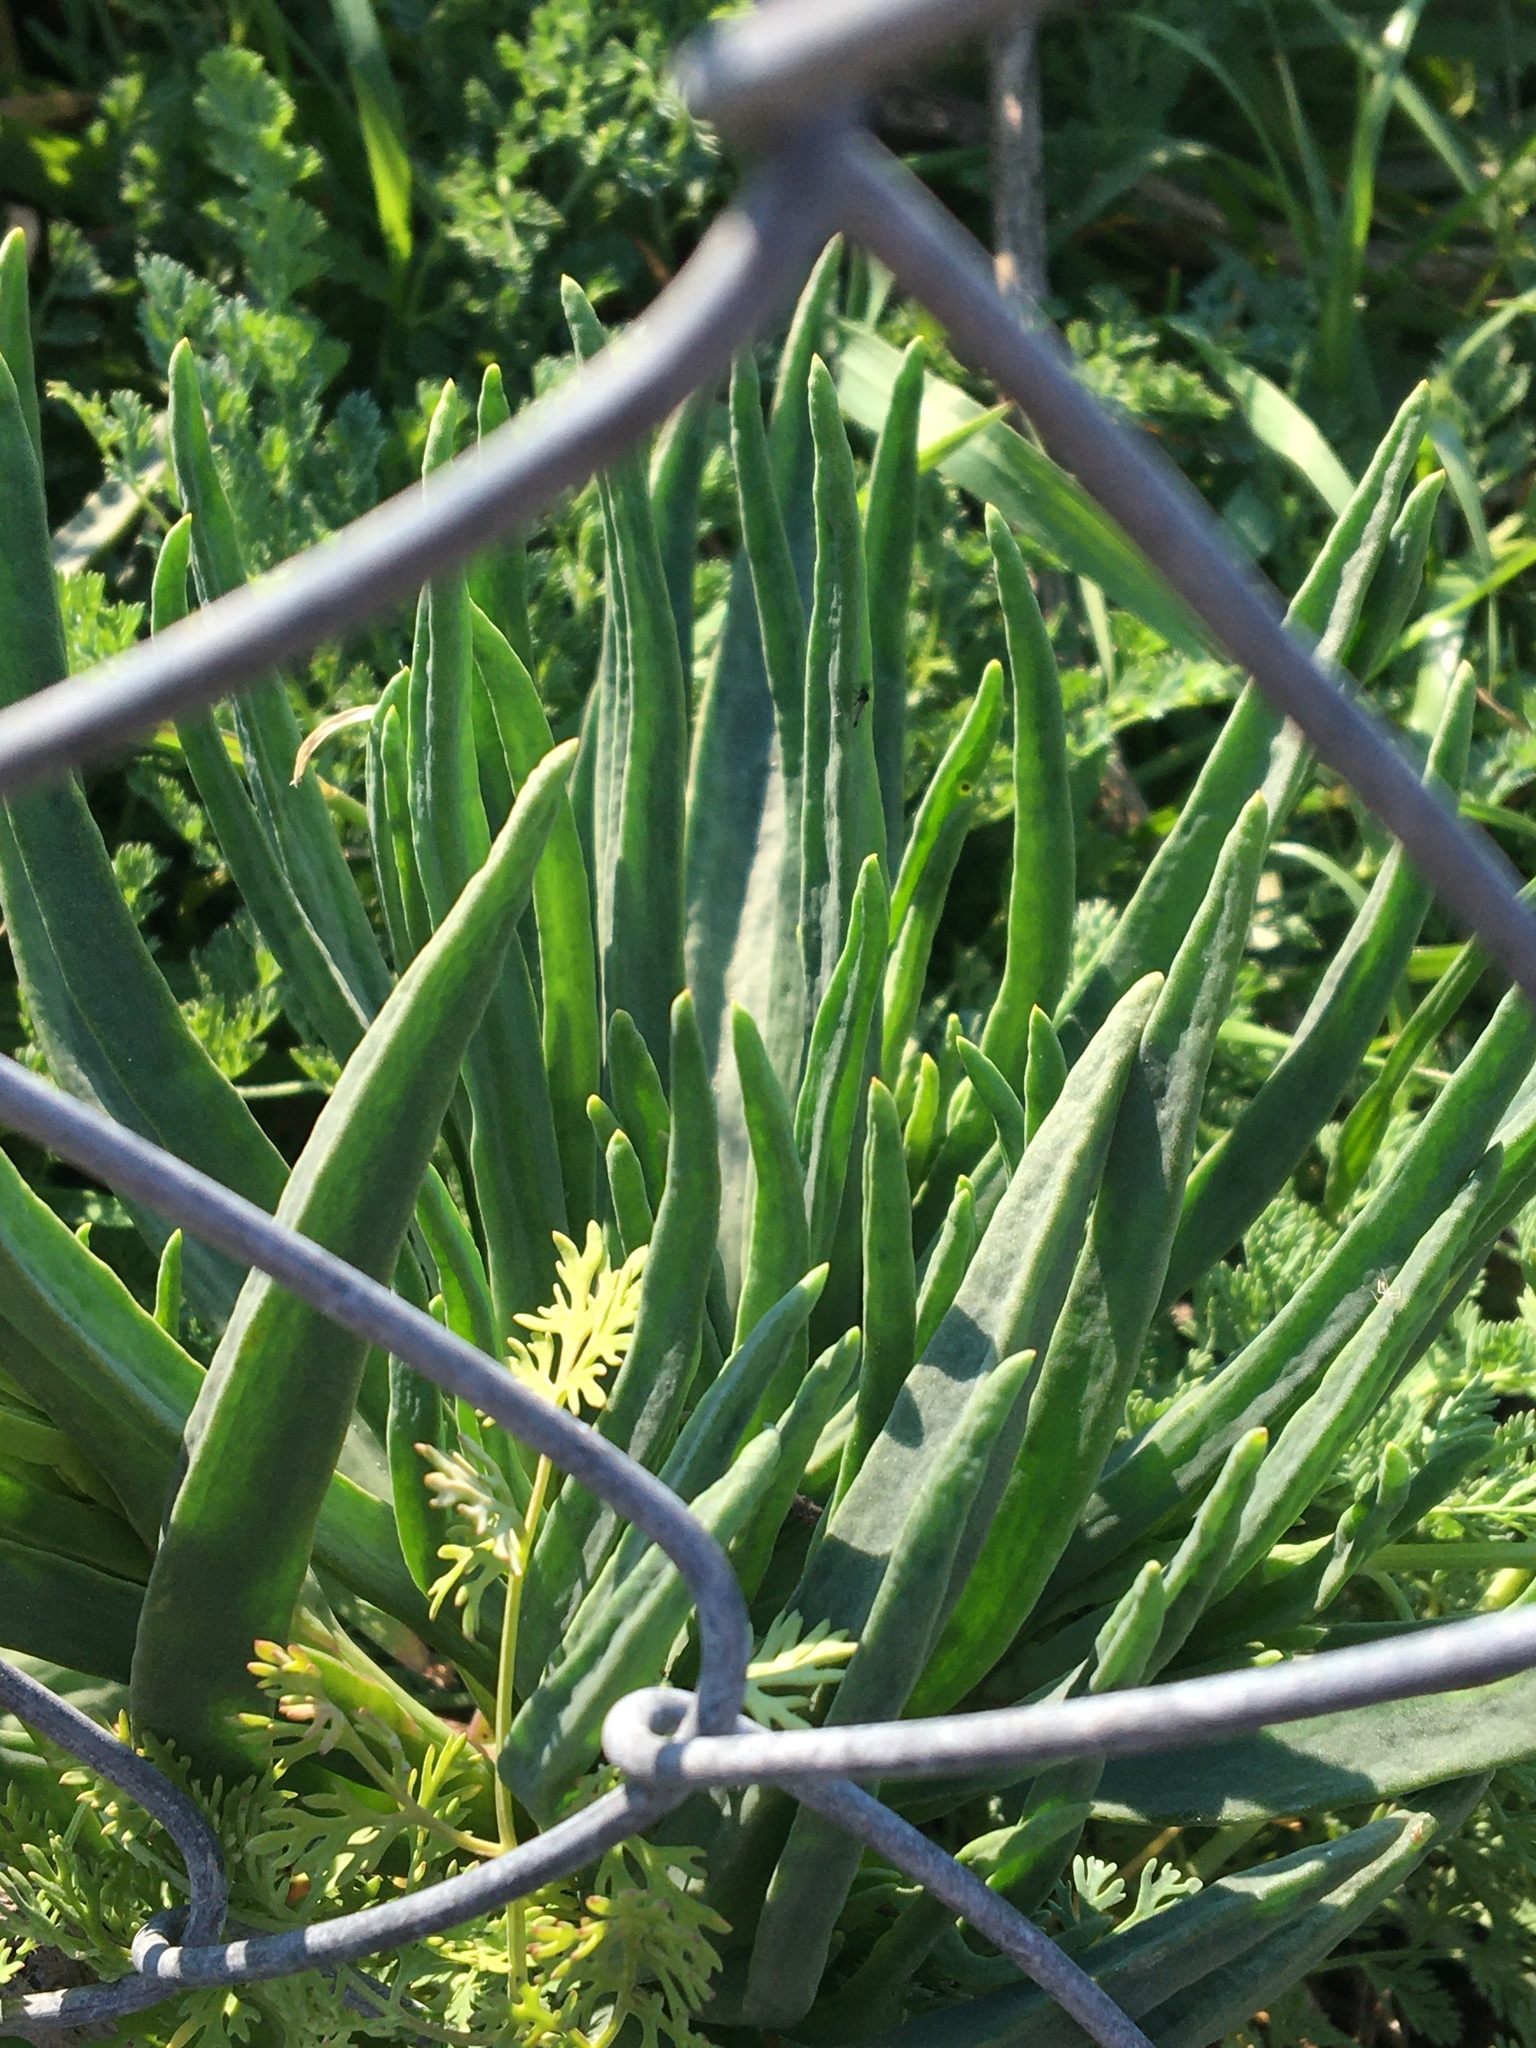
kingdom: Plantae
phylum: Tracheophyta
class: Magnoliopsida
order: Caryophyllales
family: Aizoaceae
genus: Conicosia
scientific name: Conicosia pugioniformis
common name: Narrow-leaved iceplant
